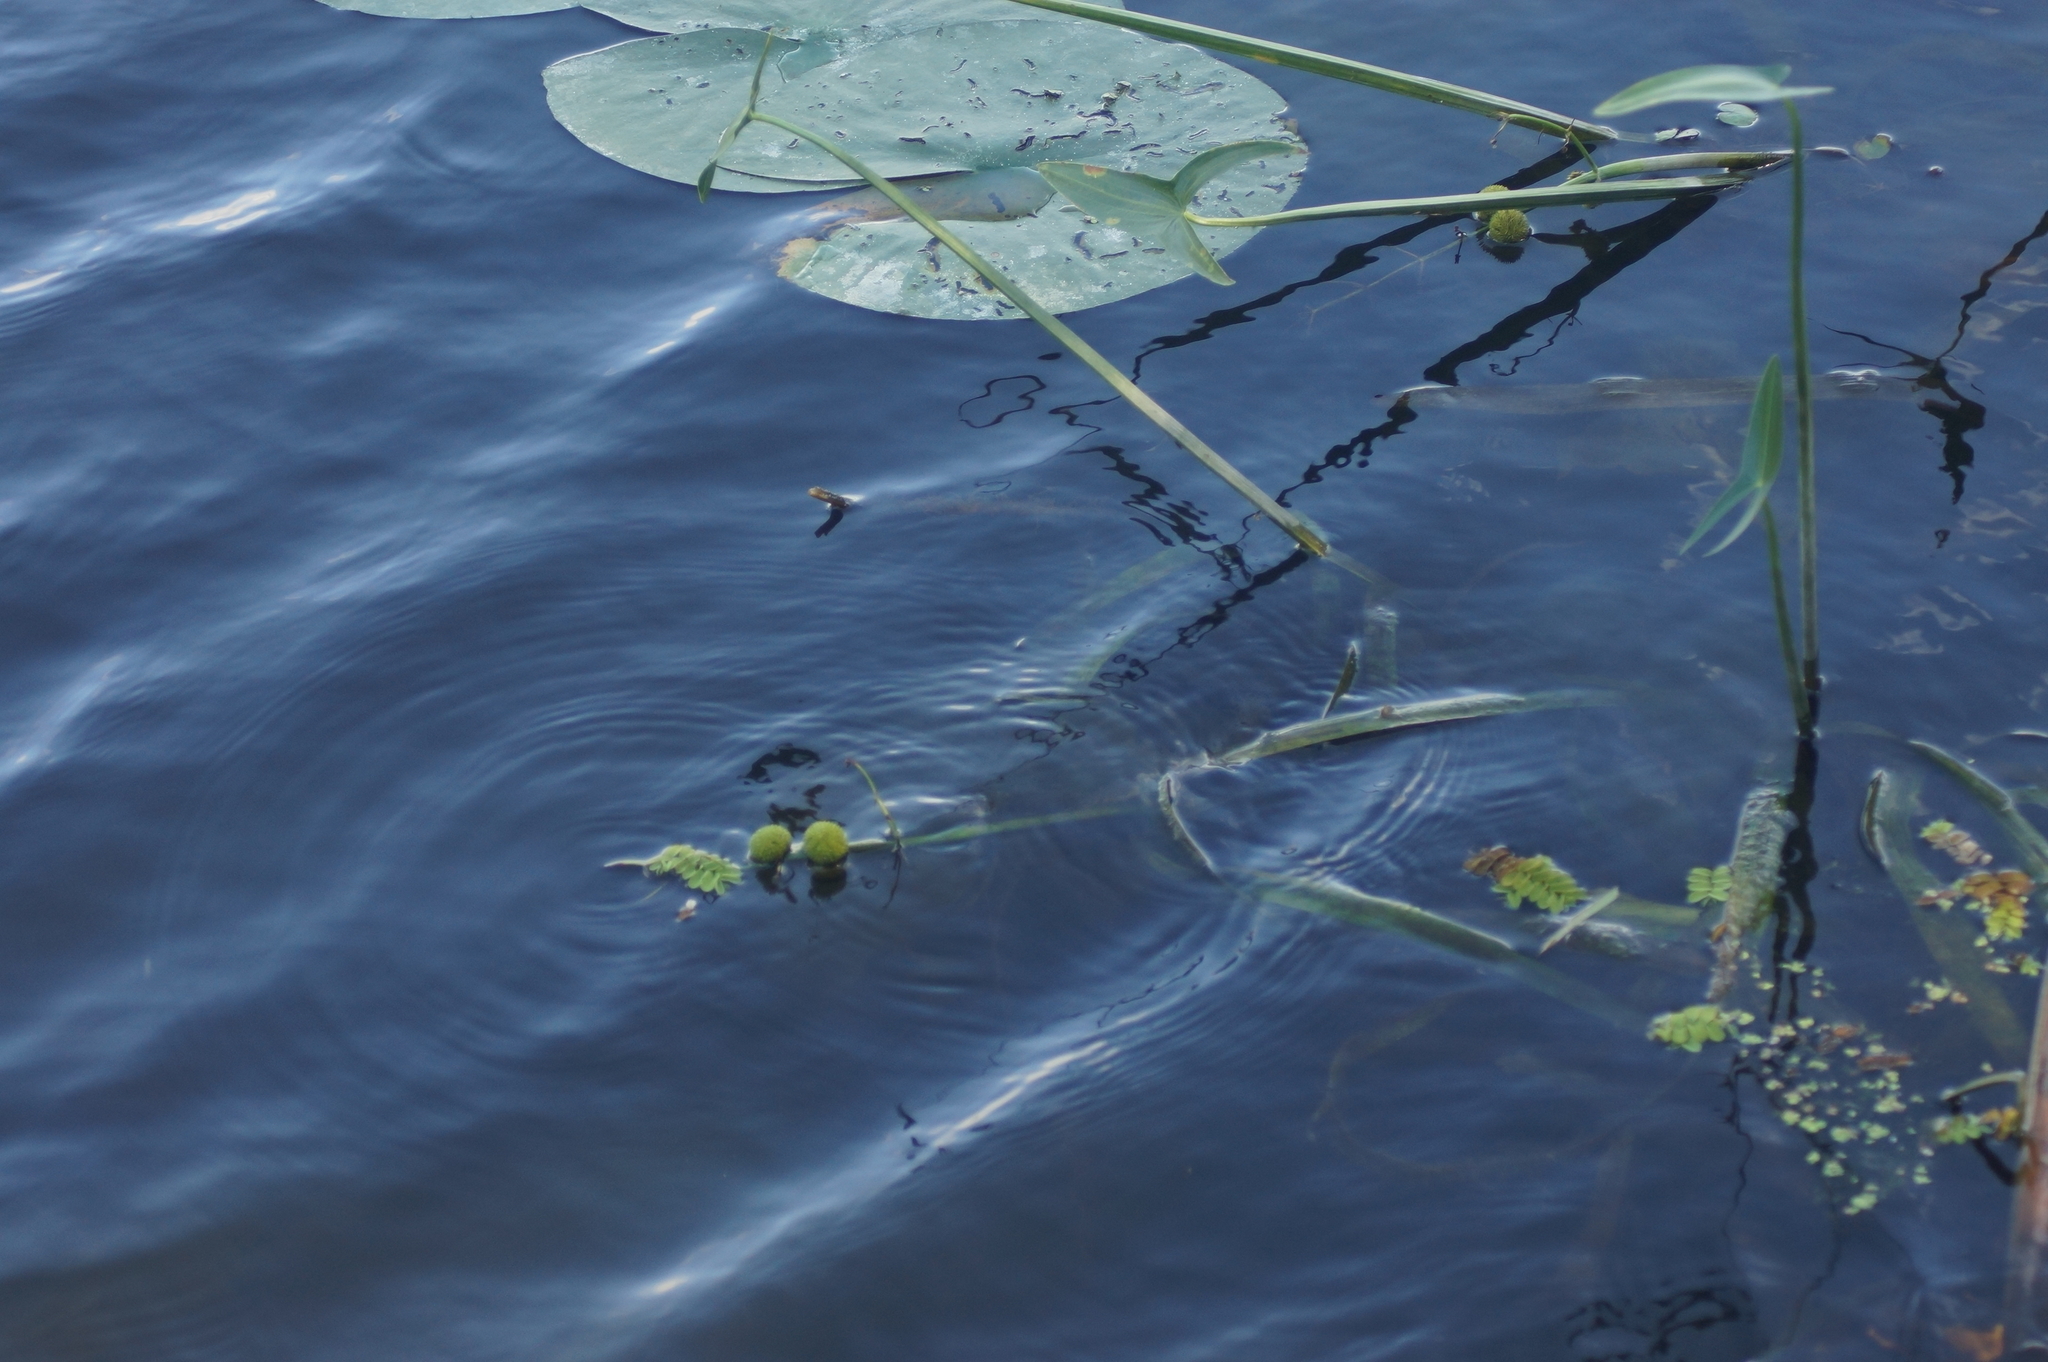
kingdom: Plantae
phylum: Tracheophyta
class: Liliopsida
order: Alismatales
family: Alismataceae
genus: Sagittaria
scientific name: Sagittaria sagittifolia
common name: Arrowhead
